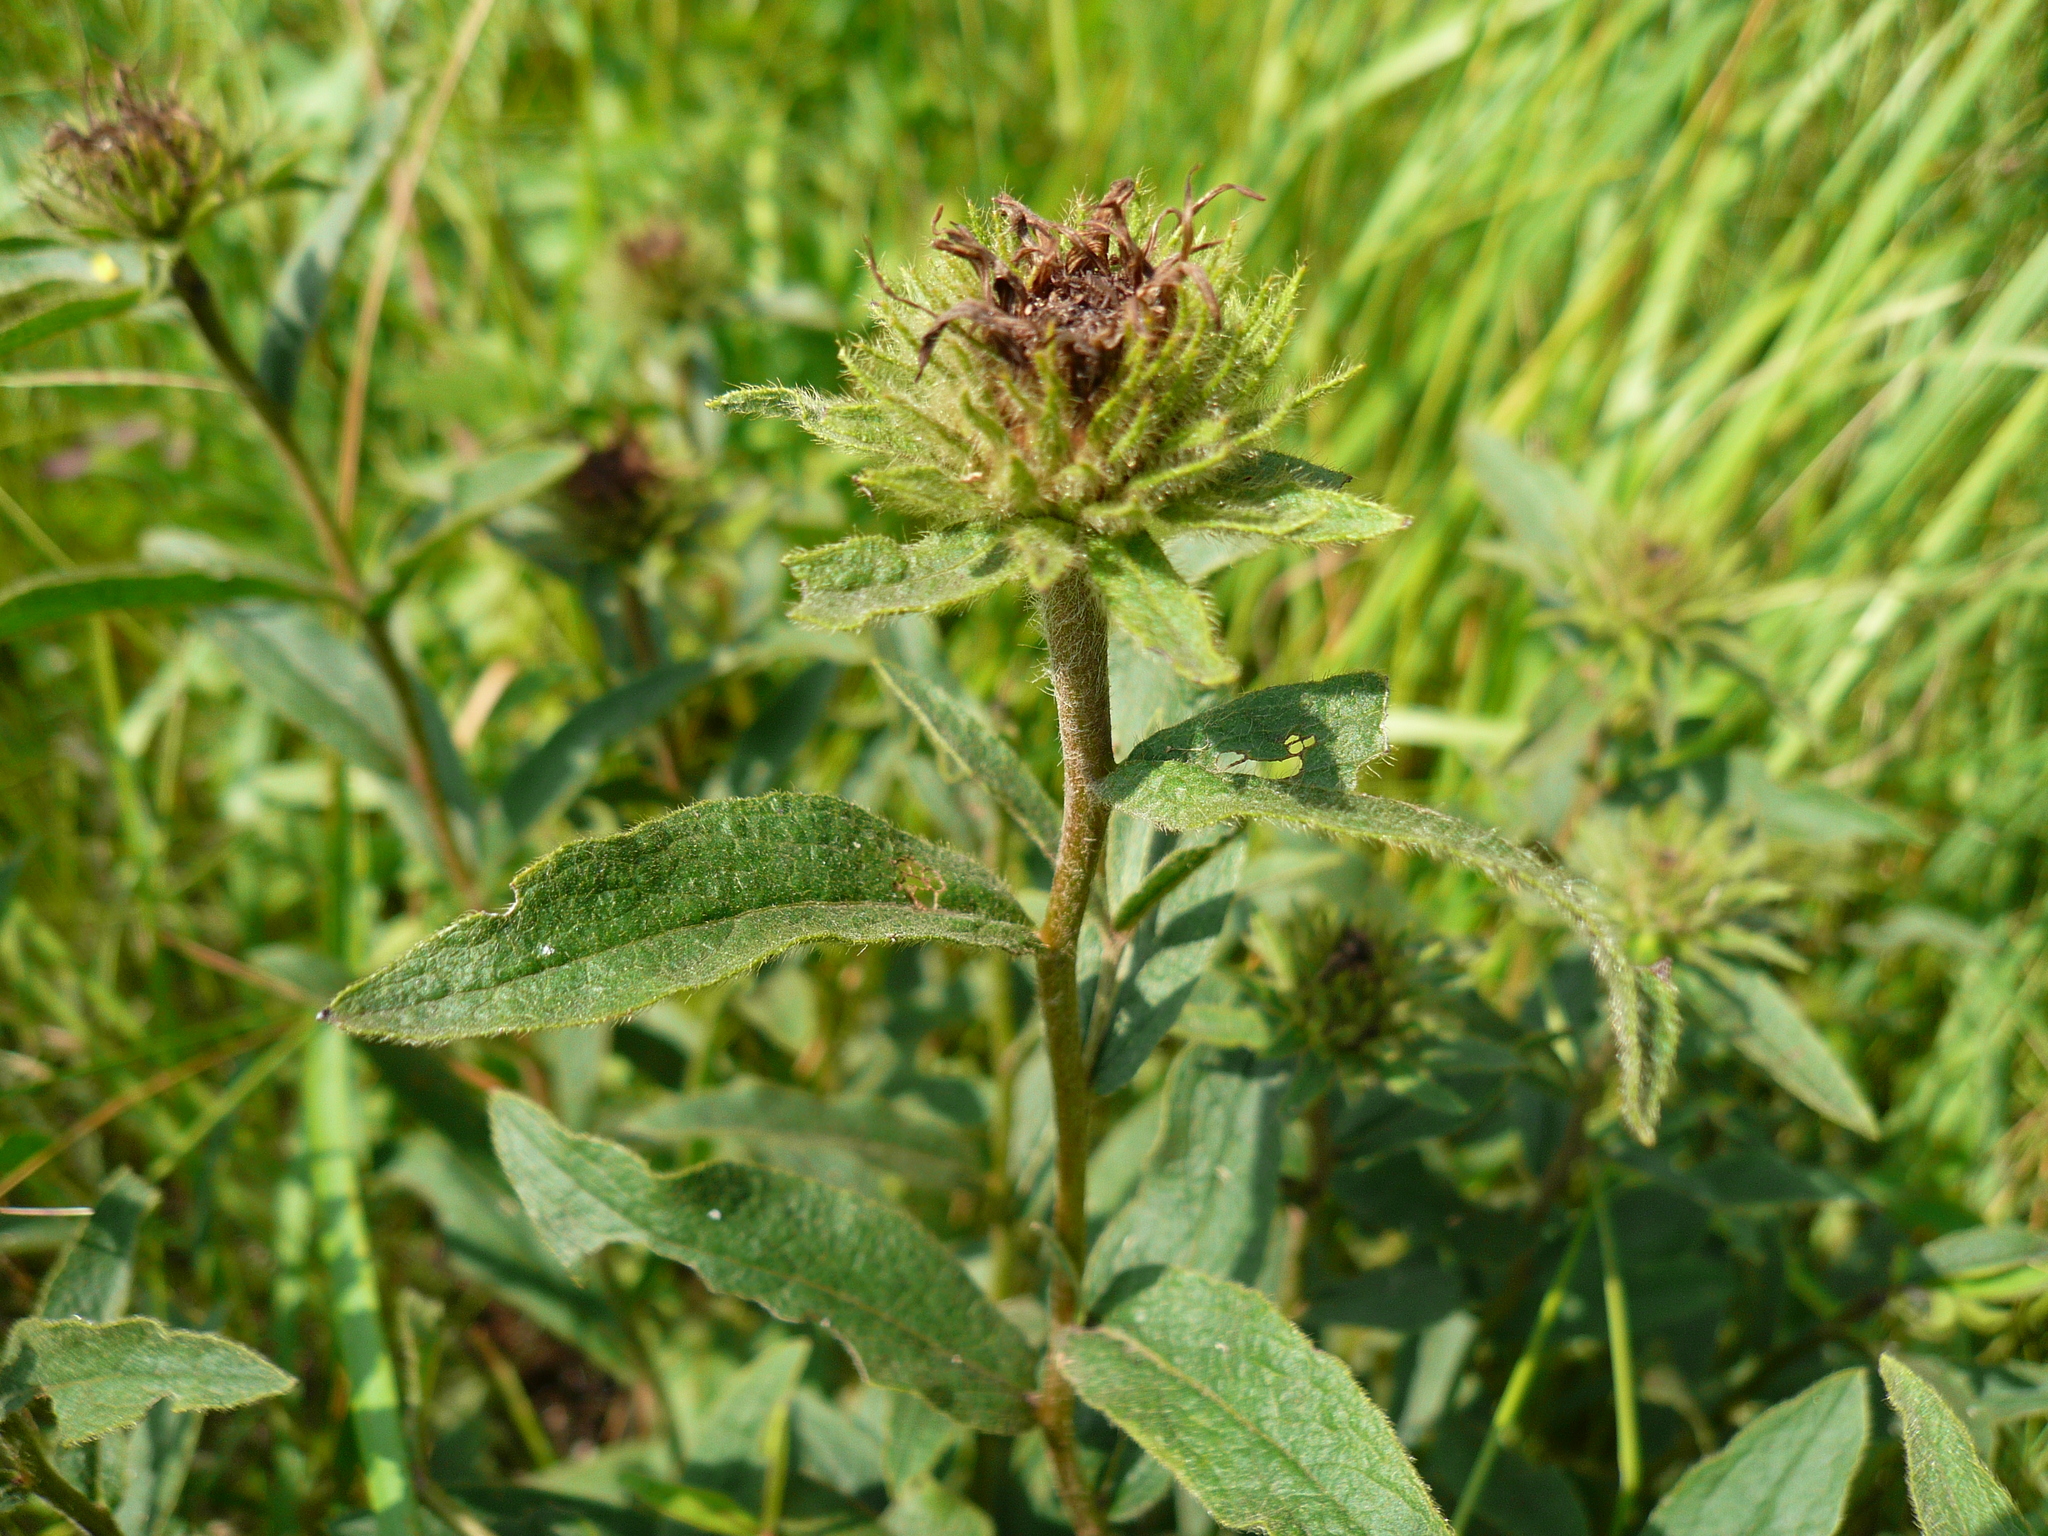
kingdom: Plantae
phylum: Tracheophyta
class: Magnoliopsida
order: Asterales
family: Asteraceae
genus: Pentanema
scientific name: Pentanema hirtum
